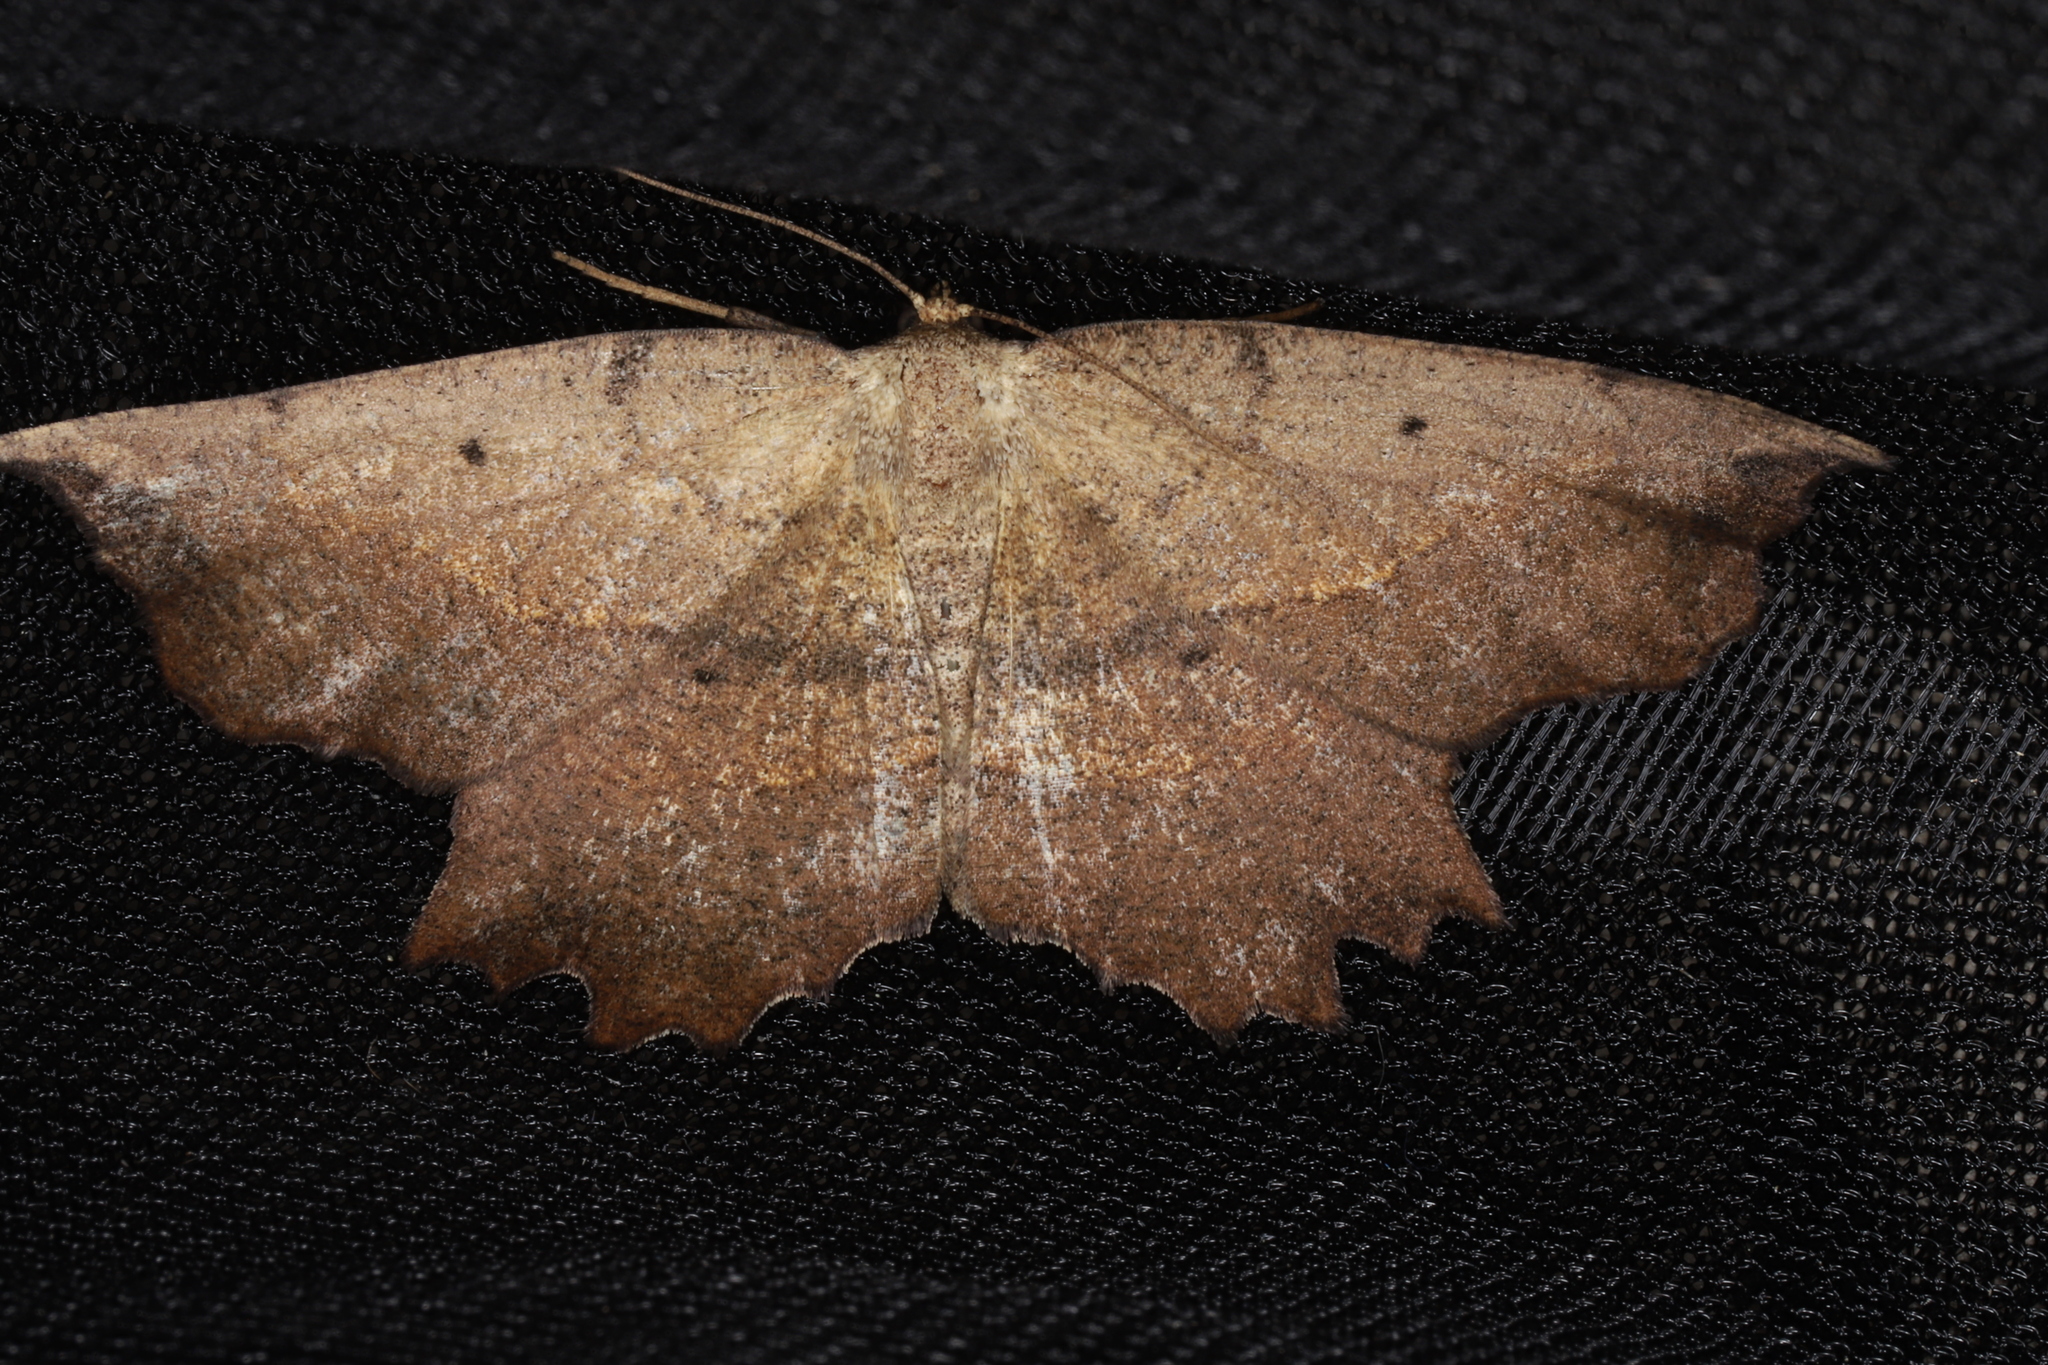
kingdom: Animalia
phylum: Arthropoda
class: Insecta
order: Lepidoptera
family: Geometridae
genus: Euchlaena
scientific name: Euchlaena muzaria
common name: Muzaria euchlaena
